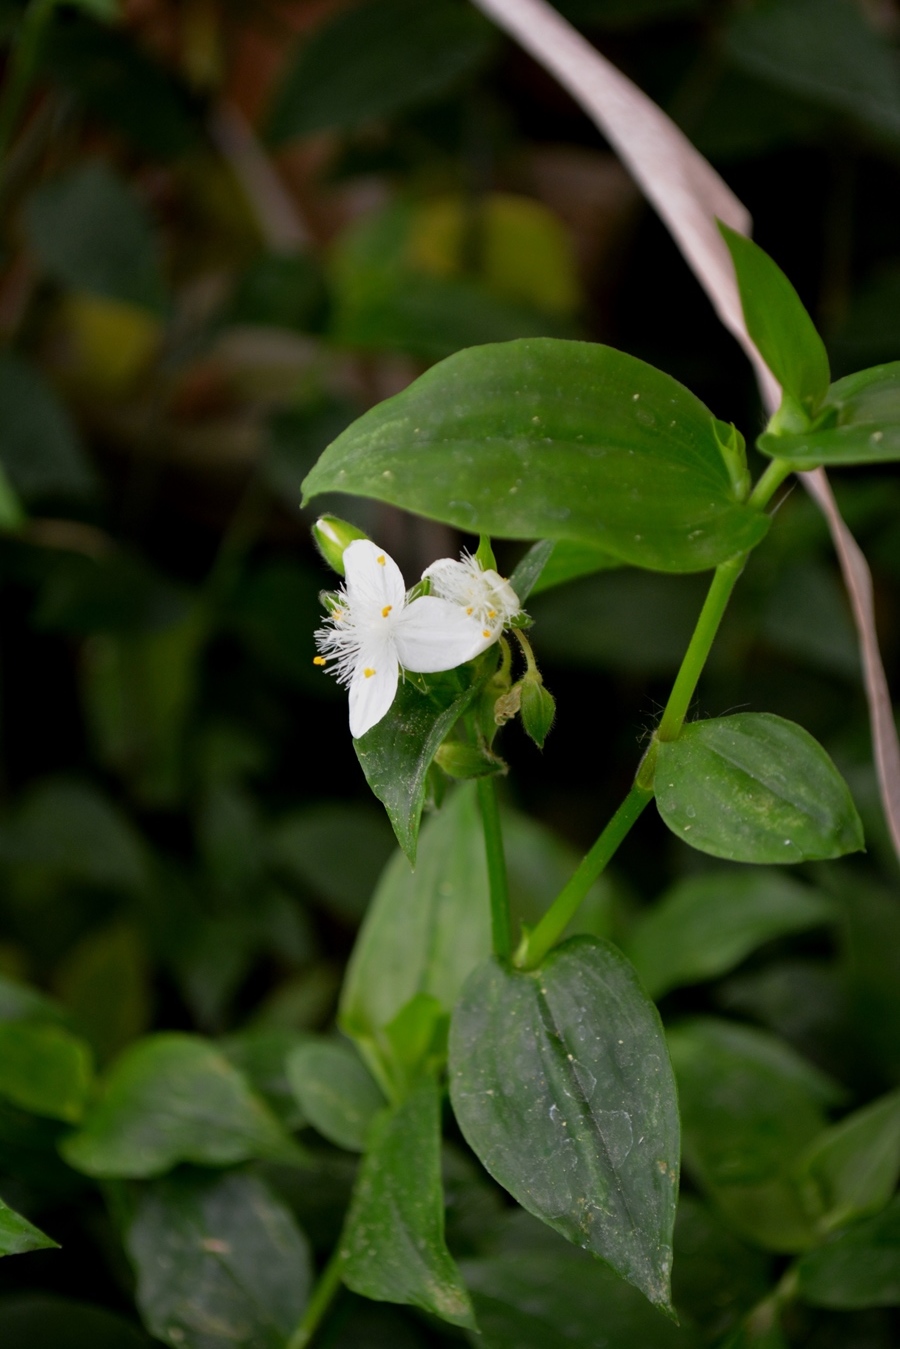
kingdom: Plantae
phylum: Tracheophyta
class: Liliopsida
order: Commelinales
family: Commelinaceae
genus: Tradescantia
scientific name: Tradescantia fluminensis
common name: Wandering-jew
